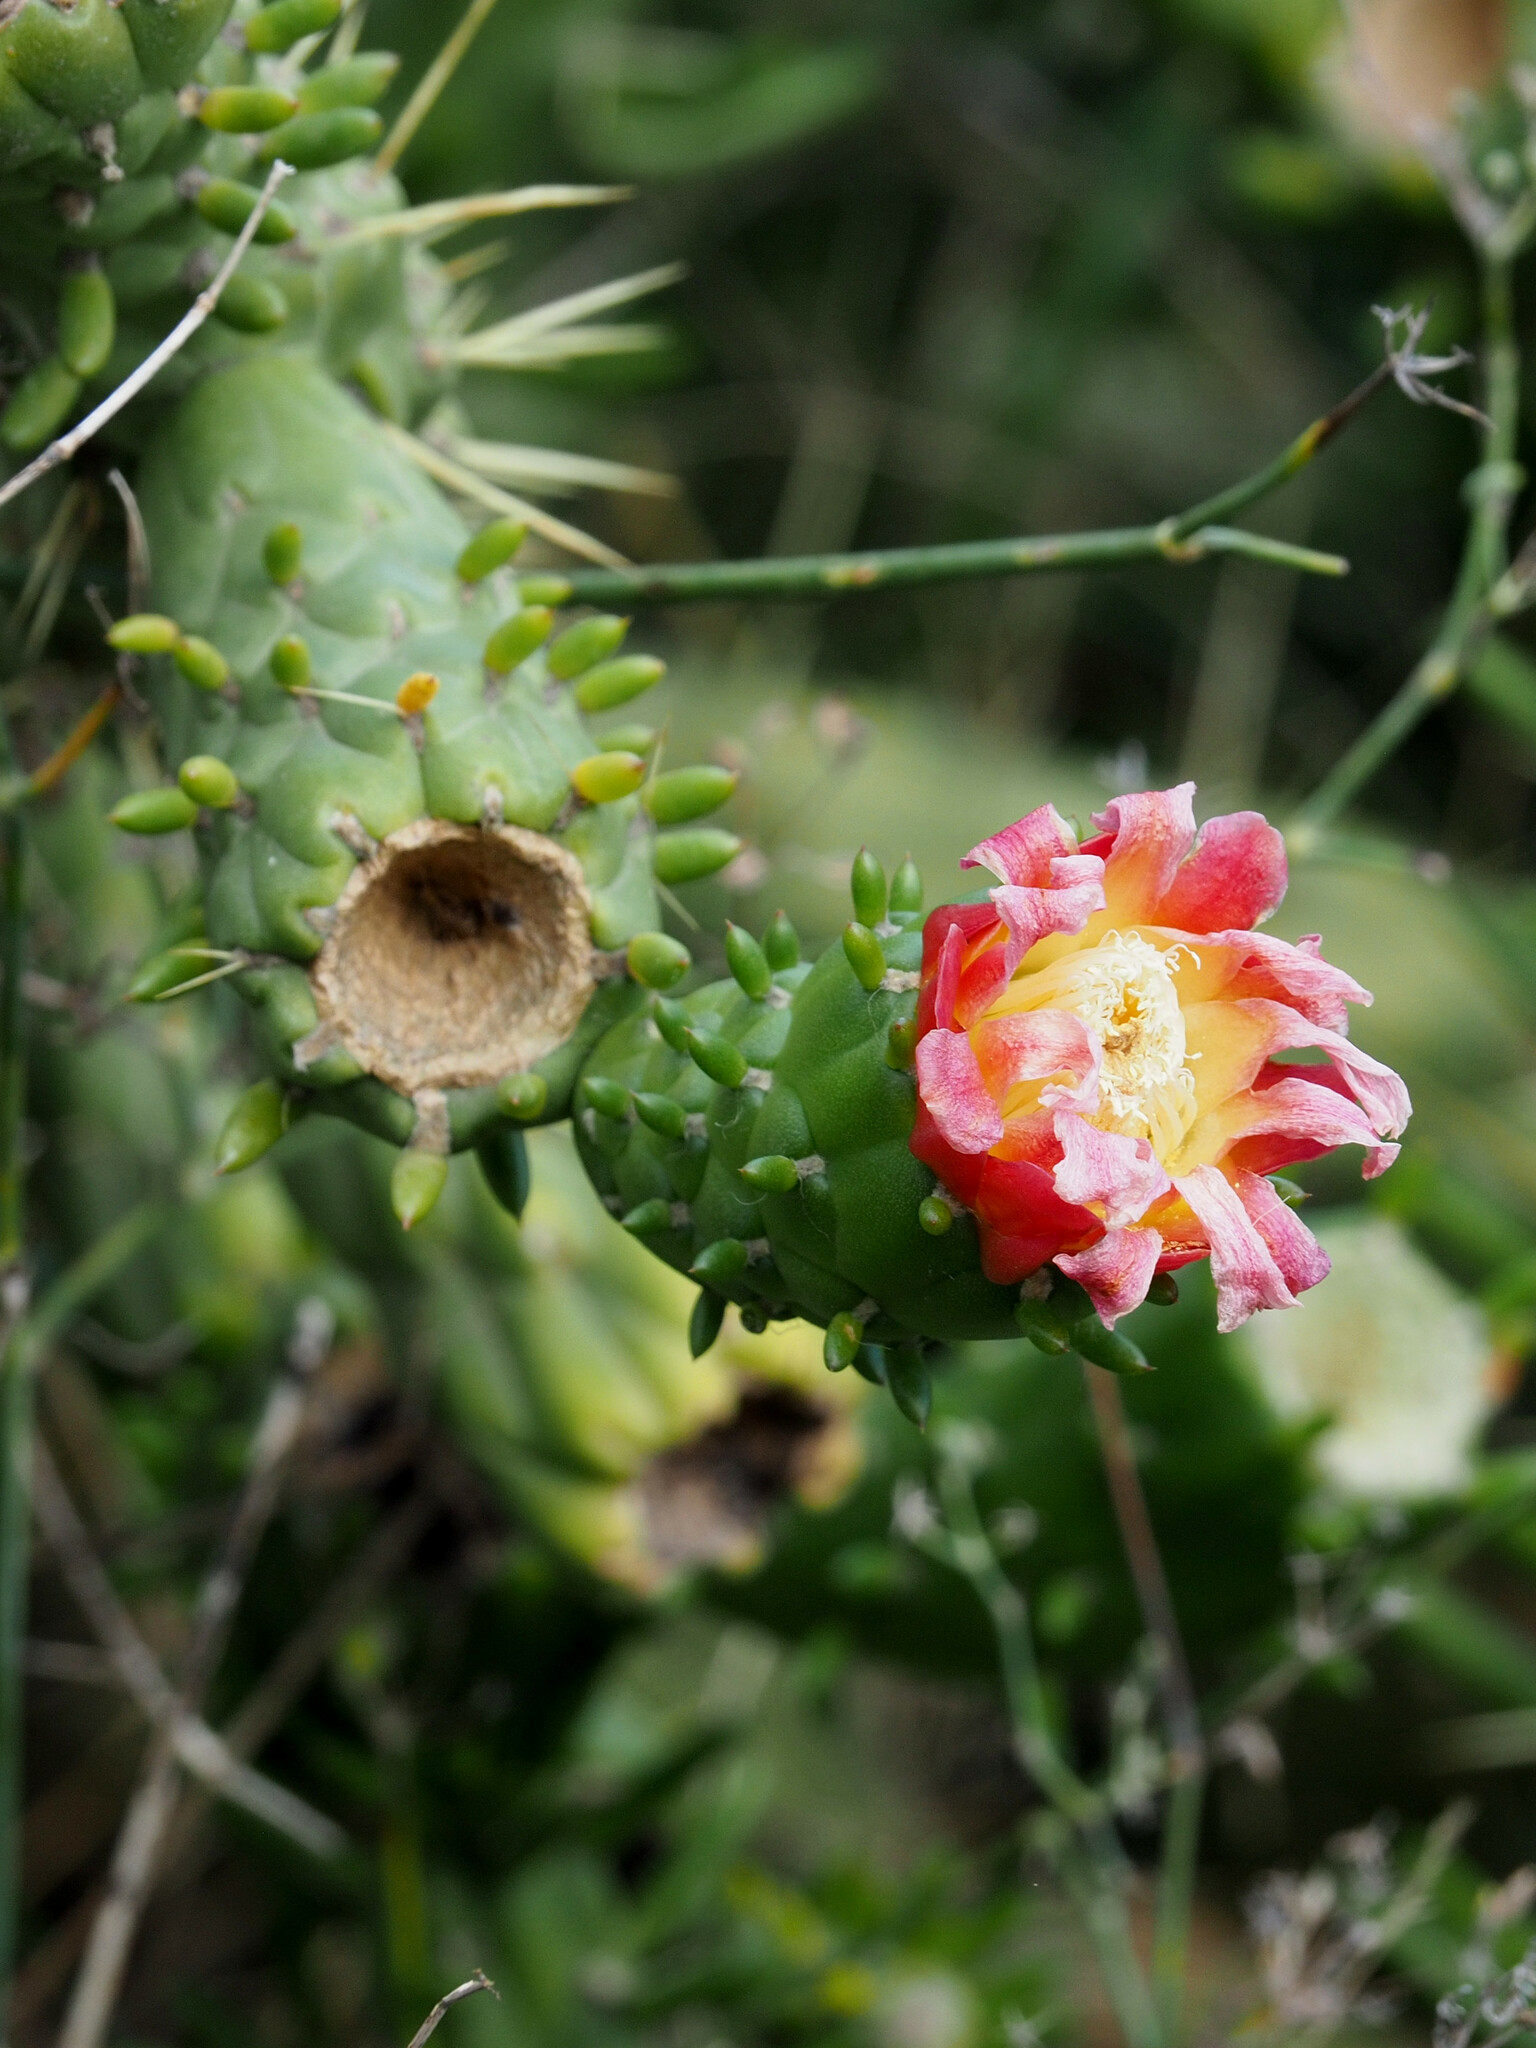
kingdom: Plantae
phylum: Tracheophyta
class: Magnoliopsida
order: Caryophyllales
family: Cactaceae
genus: Austrocylindropuntia
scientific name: Austrocylindropuntia subulata
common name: Eve's needle cactus
